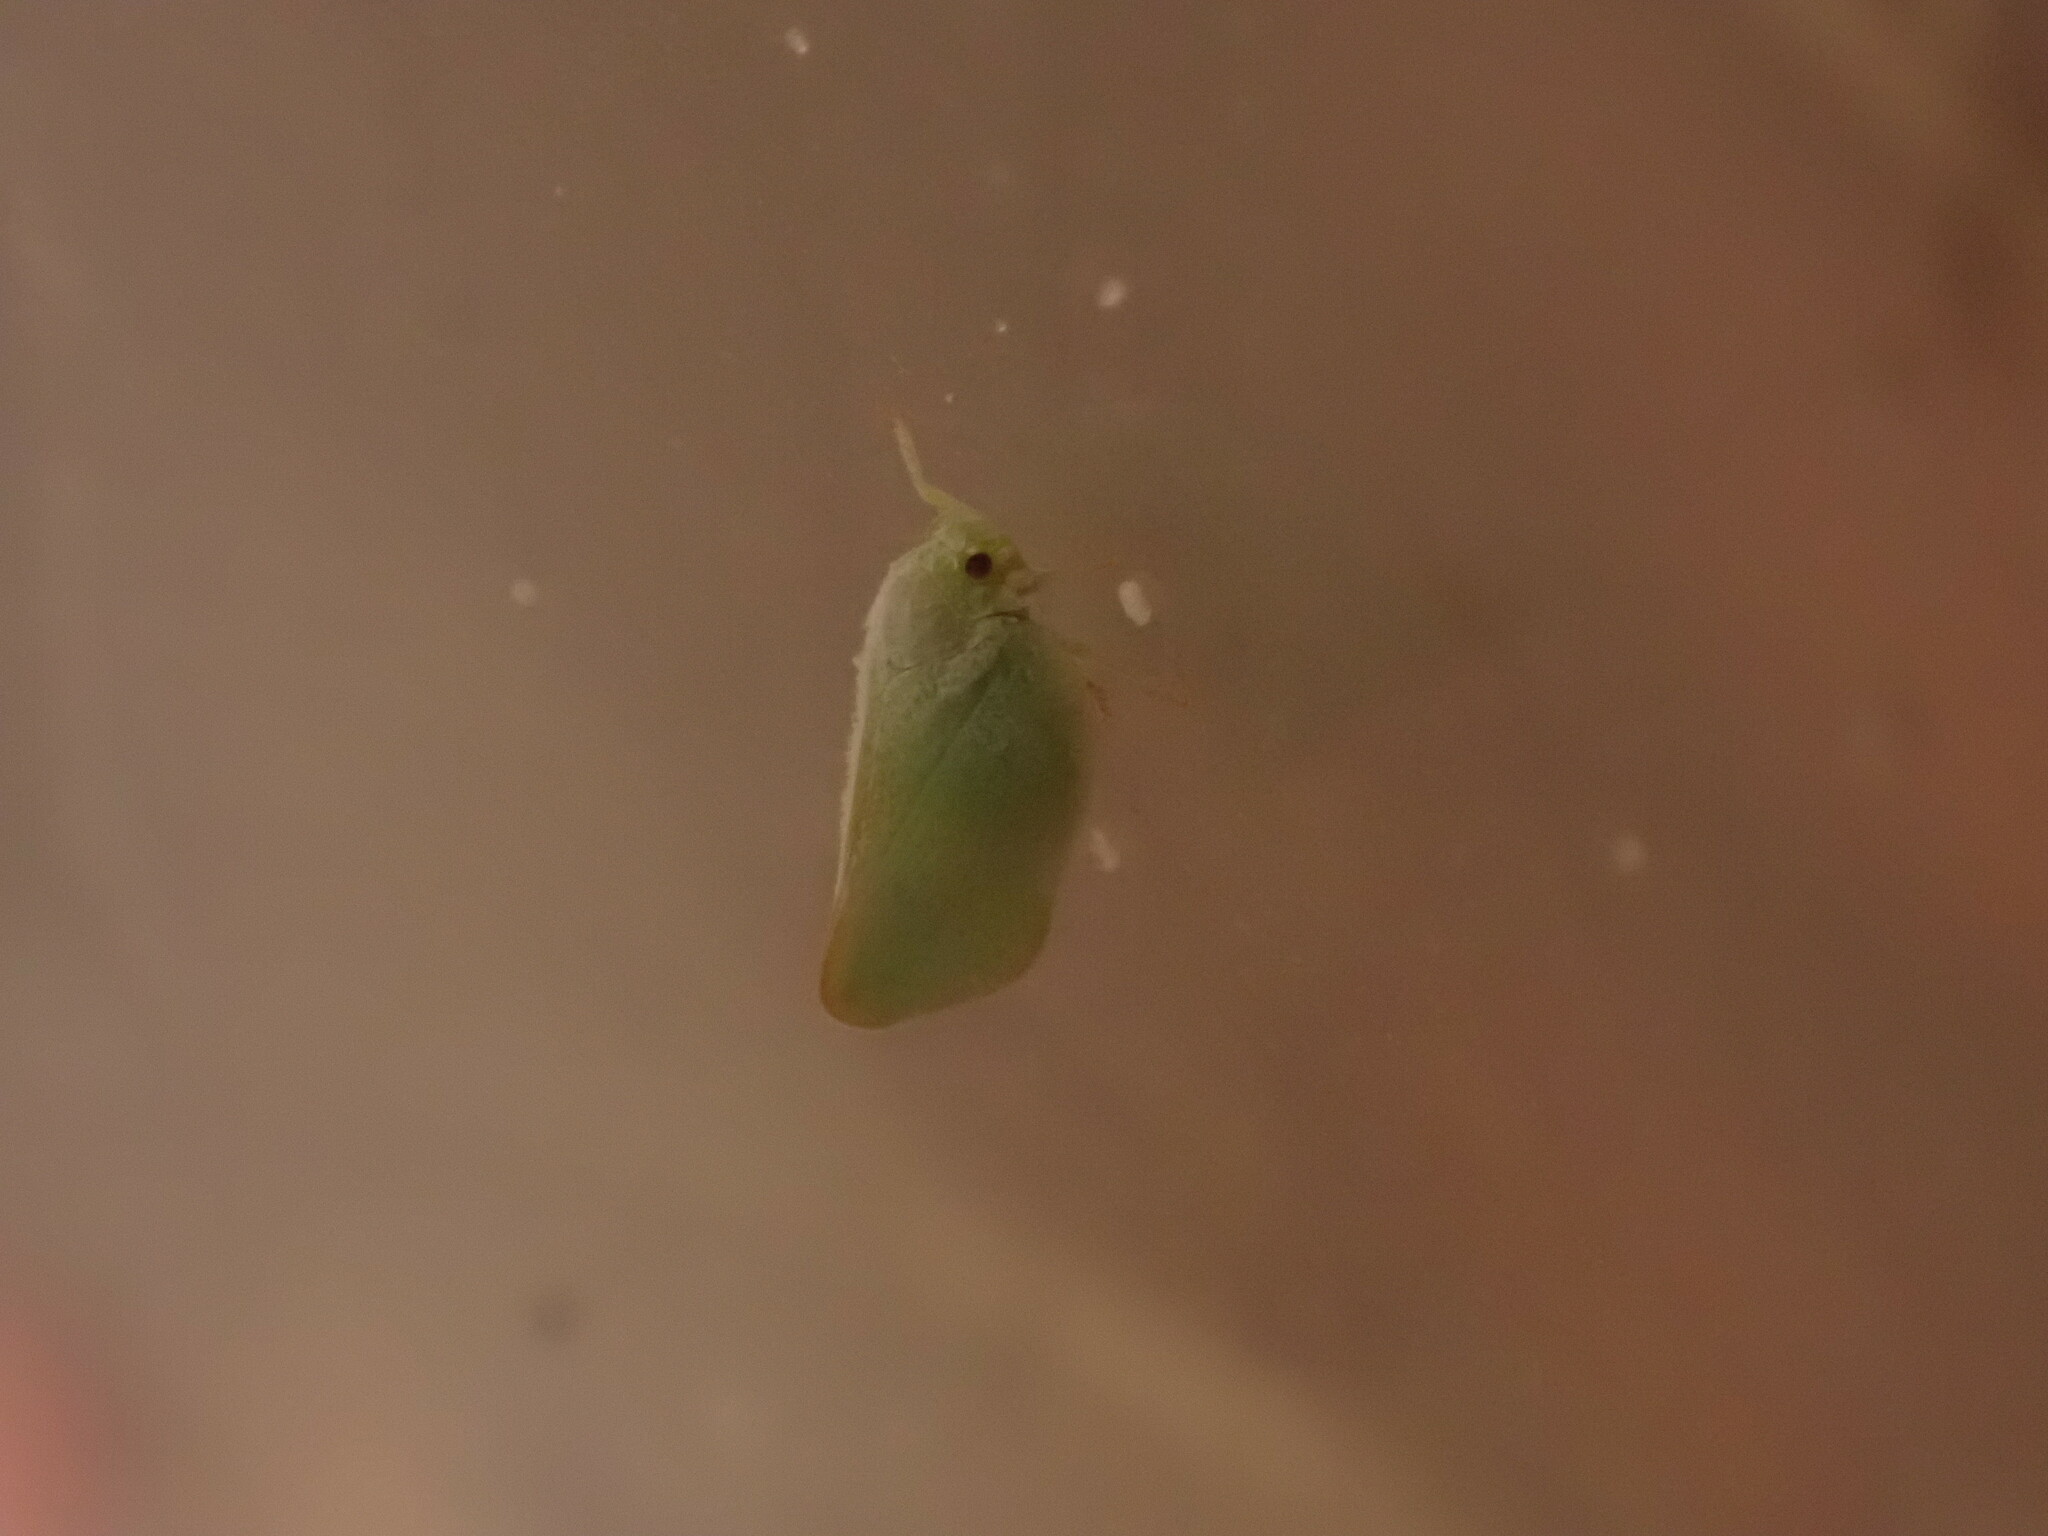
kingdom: Animalia
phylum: Arthropoda
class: Insecta
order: Hemiptera
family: Flatidae
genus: Ormenoides
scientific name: Ormenoides venusta
